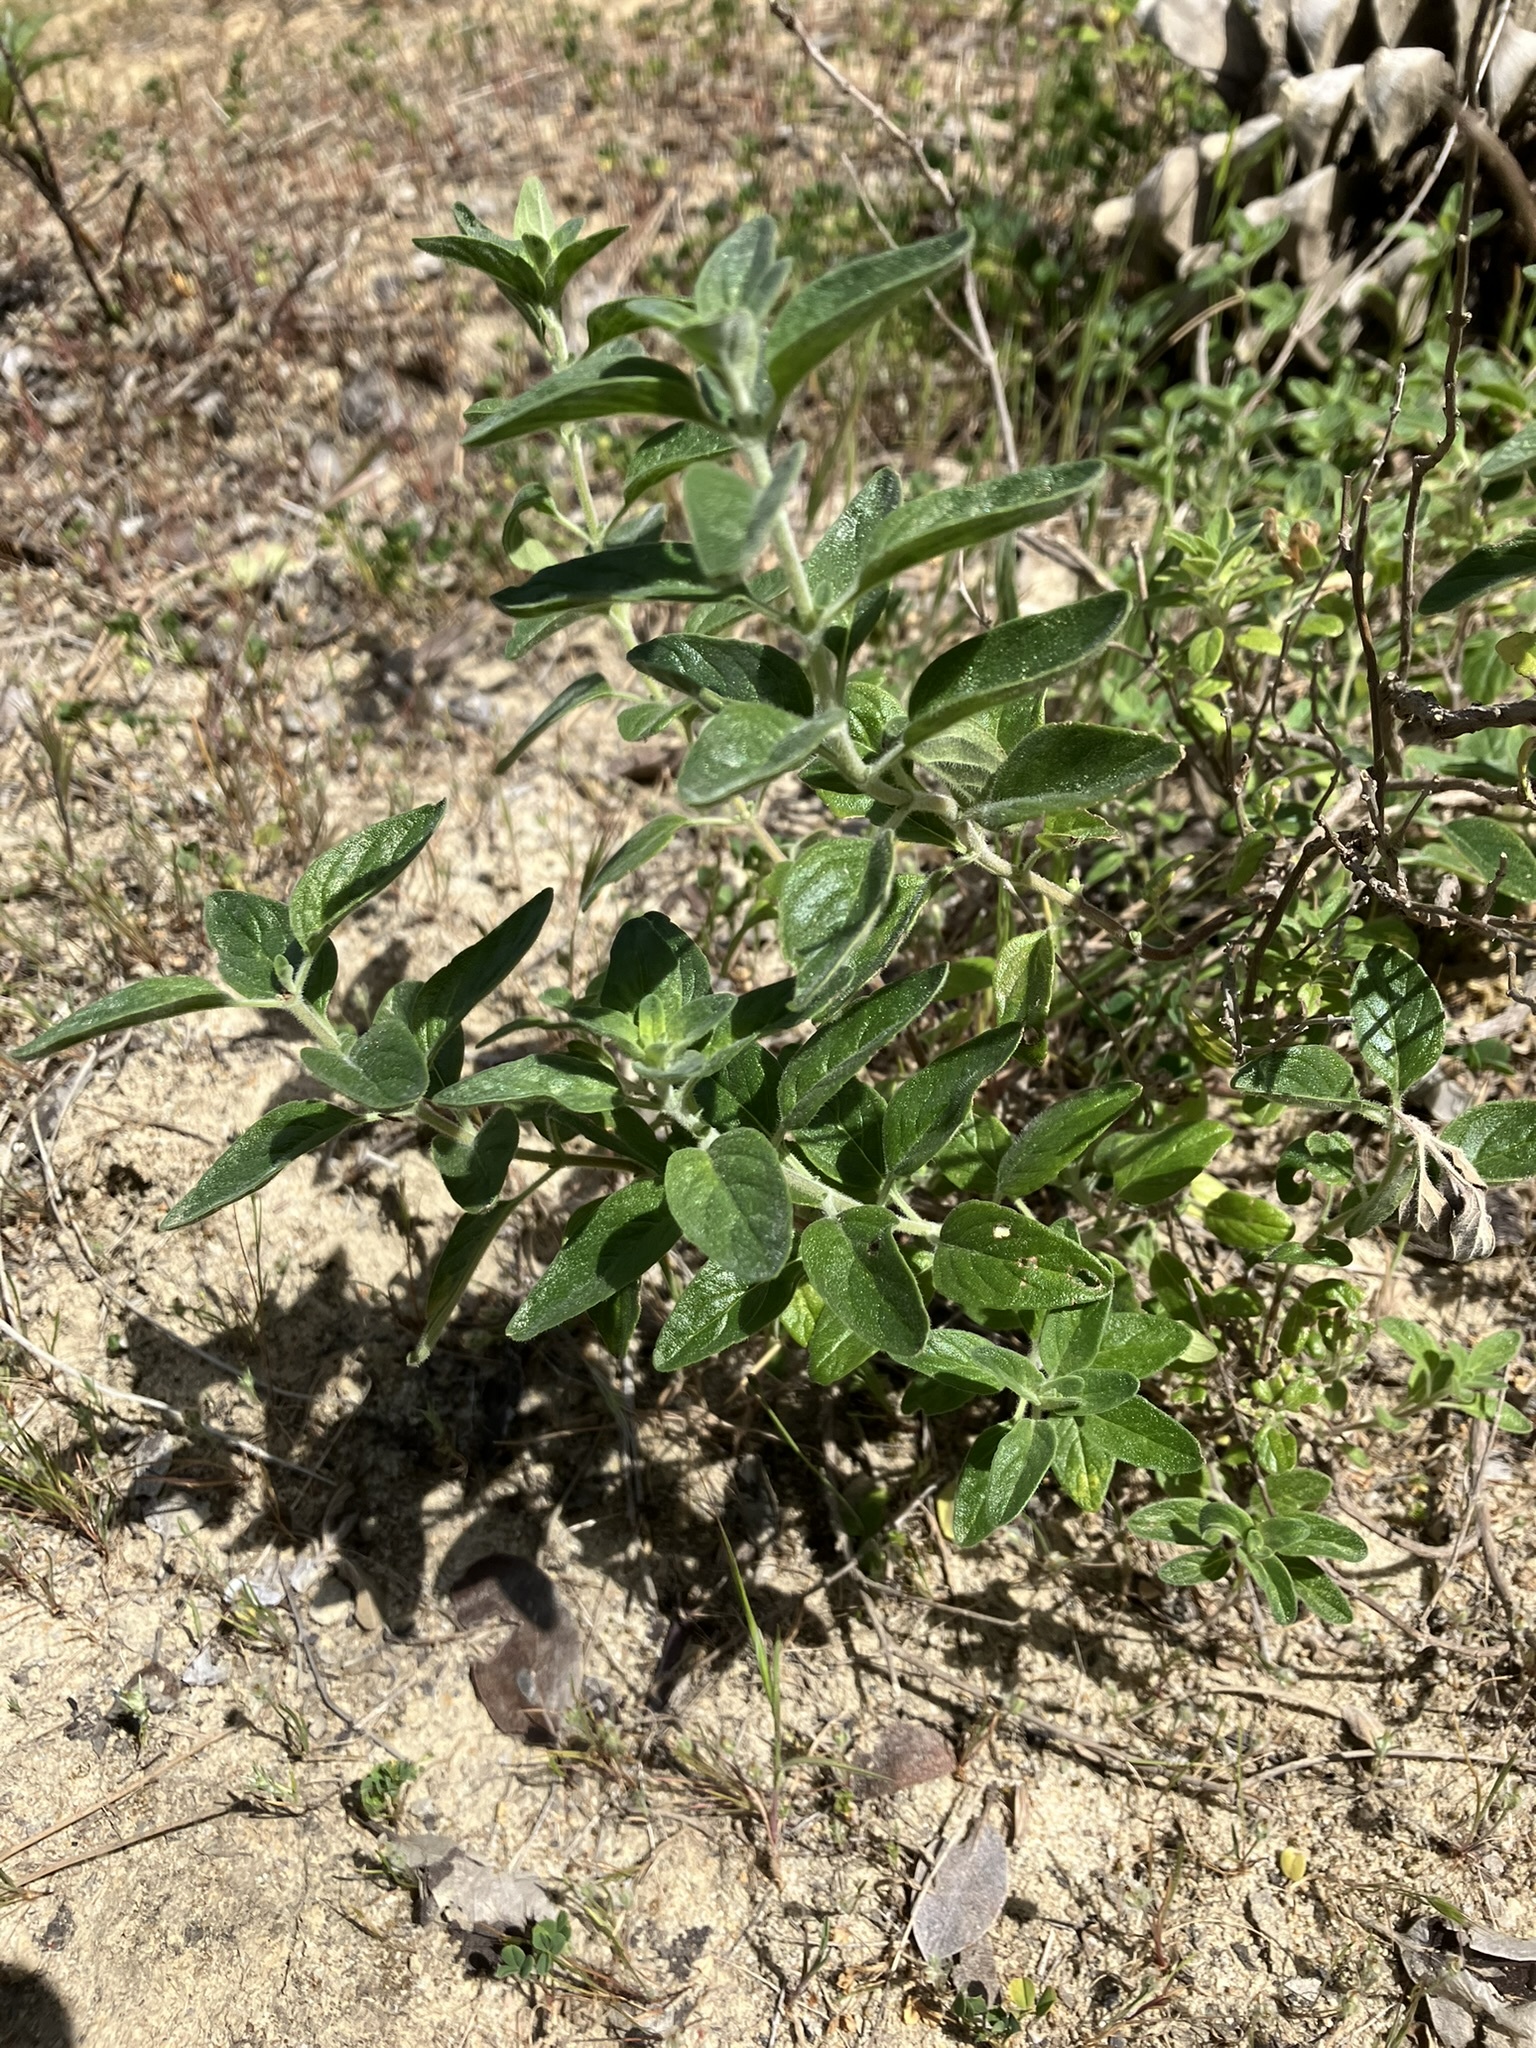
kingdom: Plantae
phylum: Tracheophyta
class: Magnoliopsida
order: Lamiales
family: Lamiaceae
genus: Monardella
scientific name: Monardella odoratissima
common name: Pacific monardella
